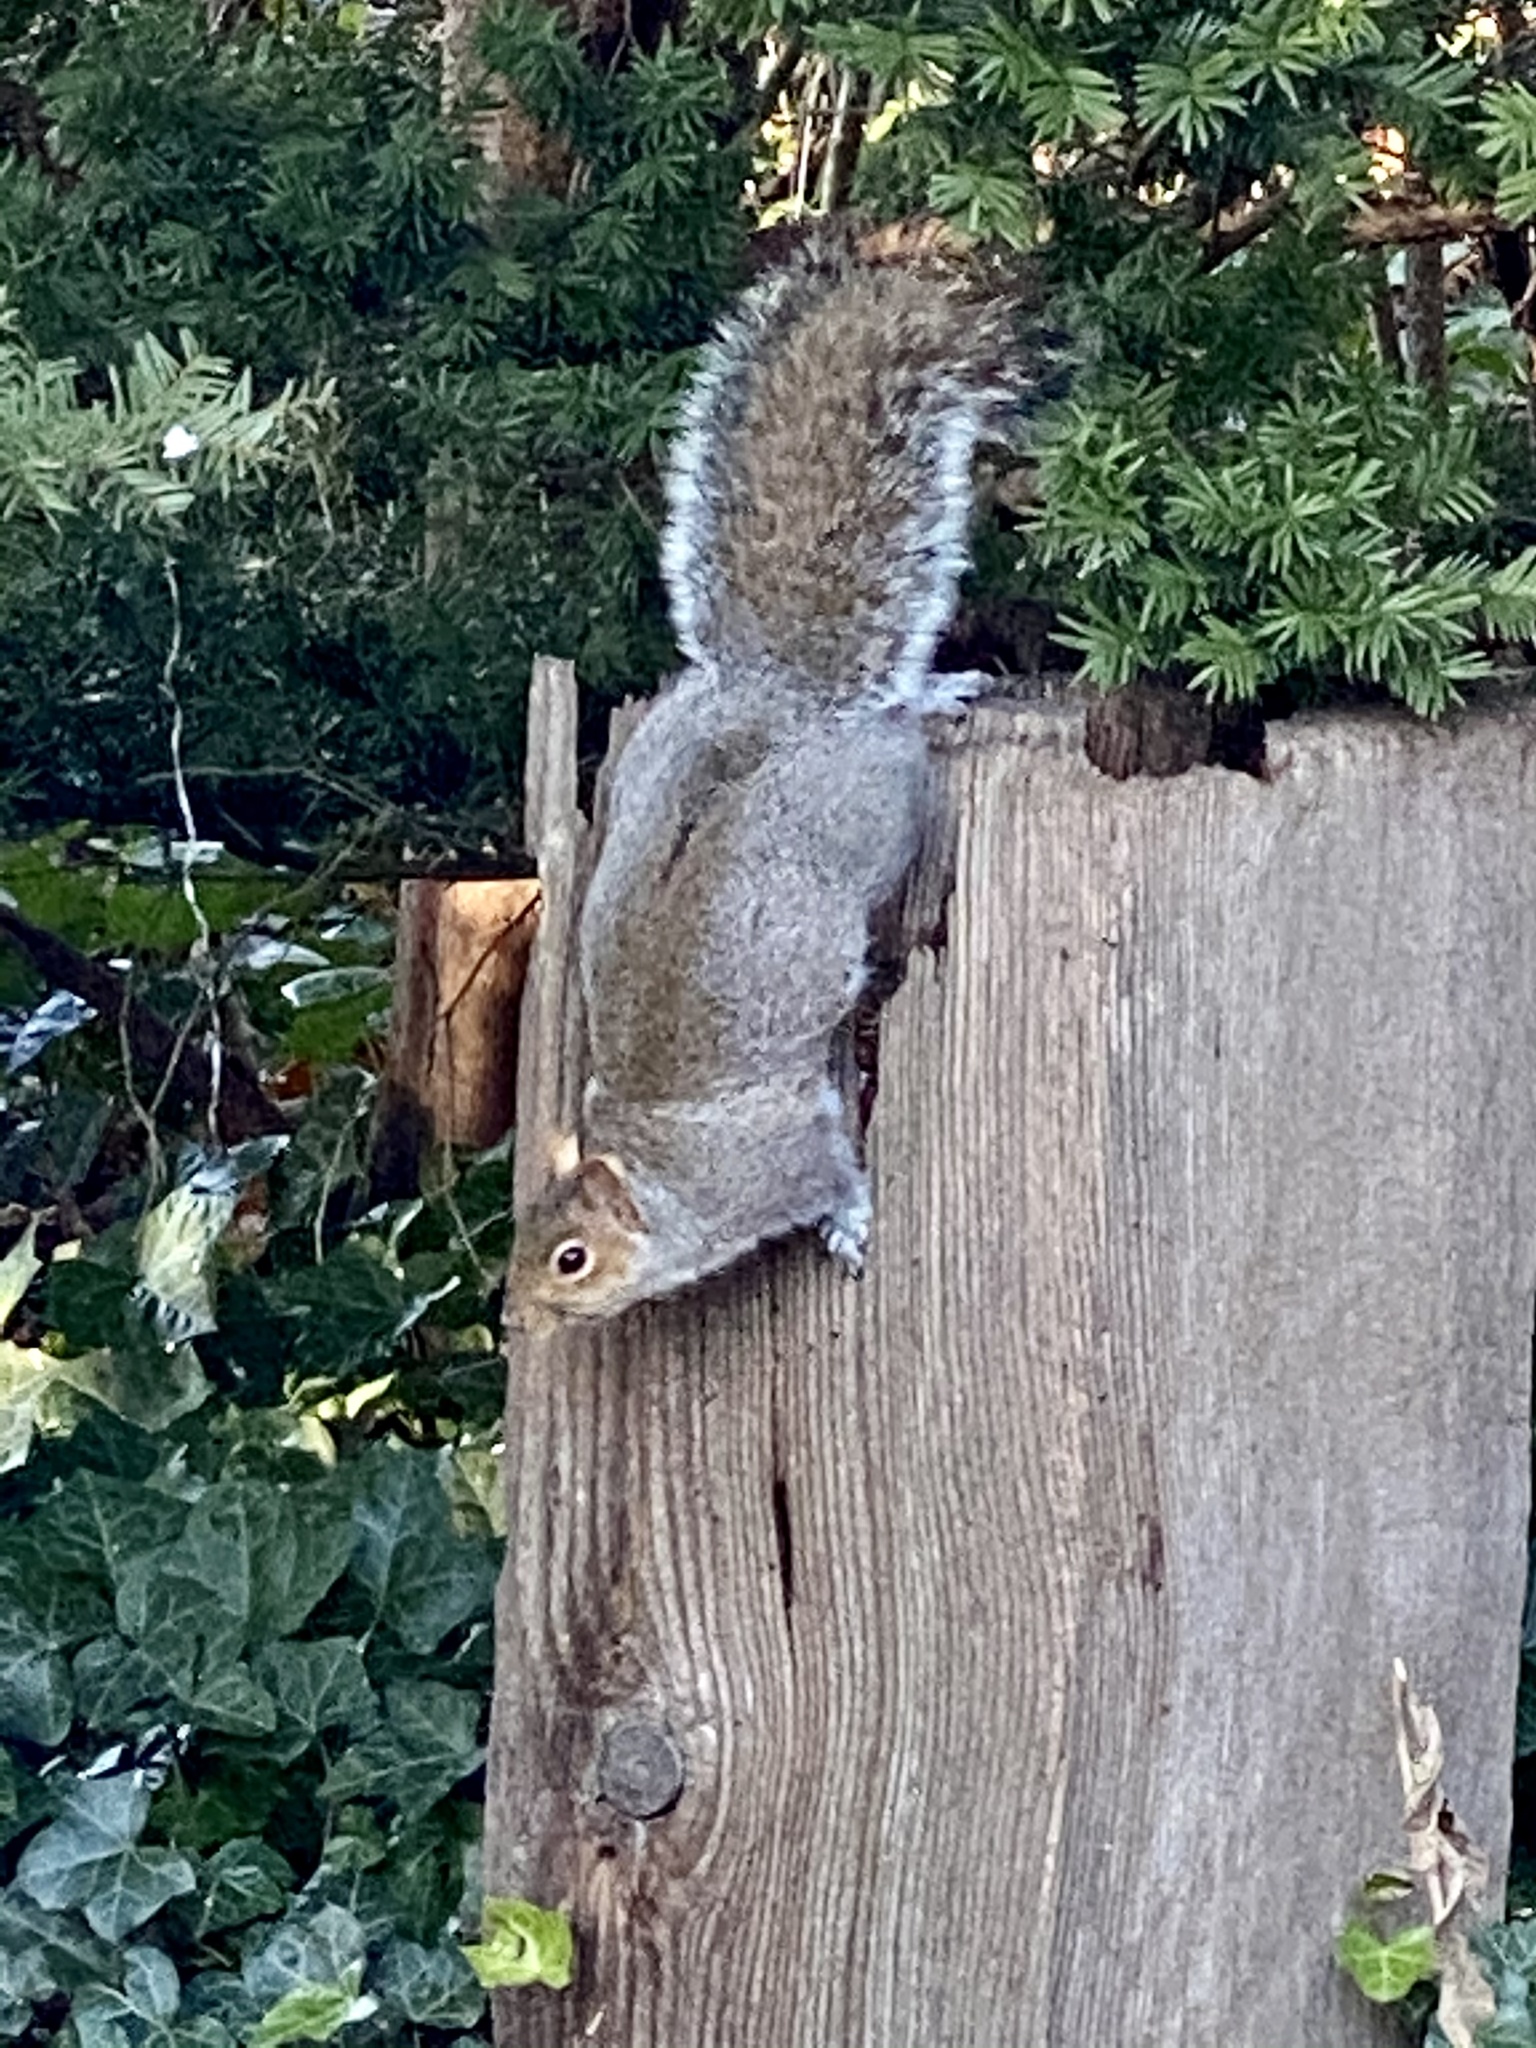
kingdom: Animalia
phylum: Chordata
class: Mammalia
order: Rodentia
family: Sciuridae
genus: Sciurus
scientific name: Sciurus carolinensis
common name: Eastern gray squirrel
